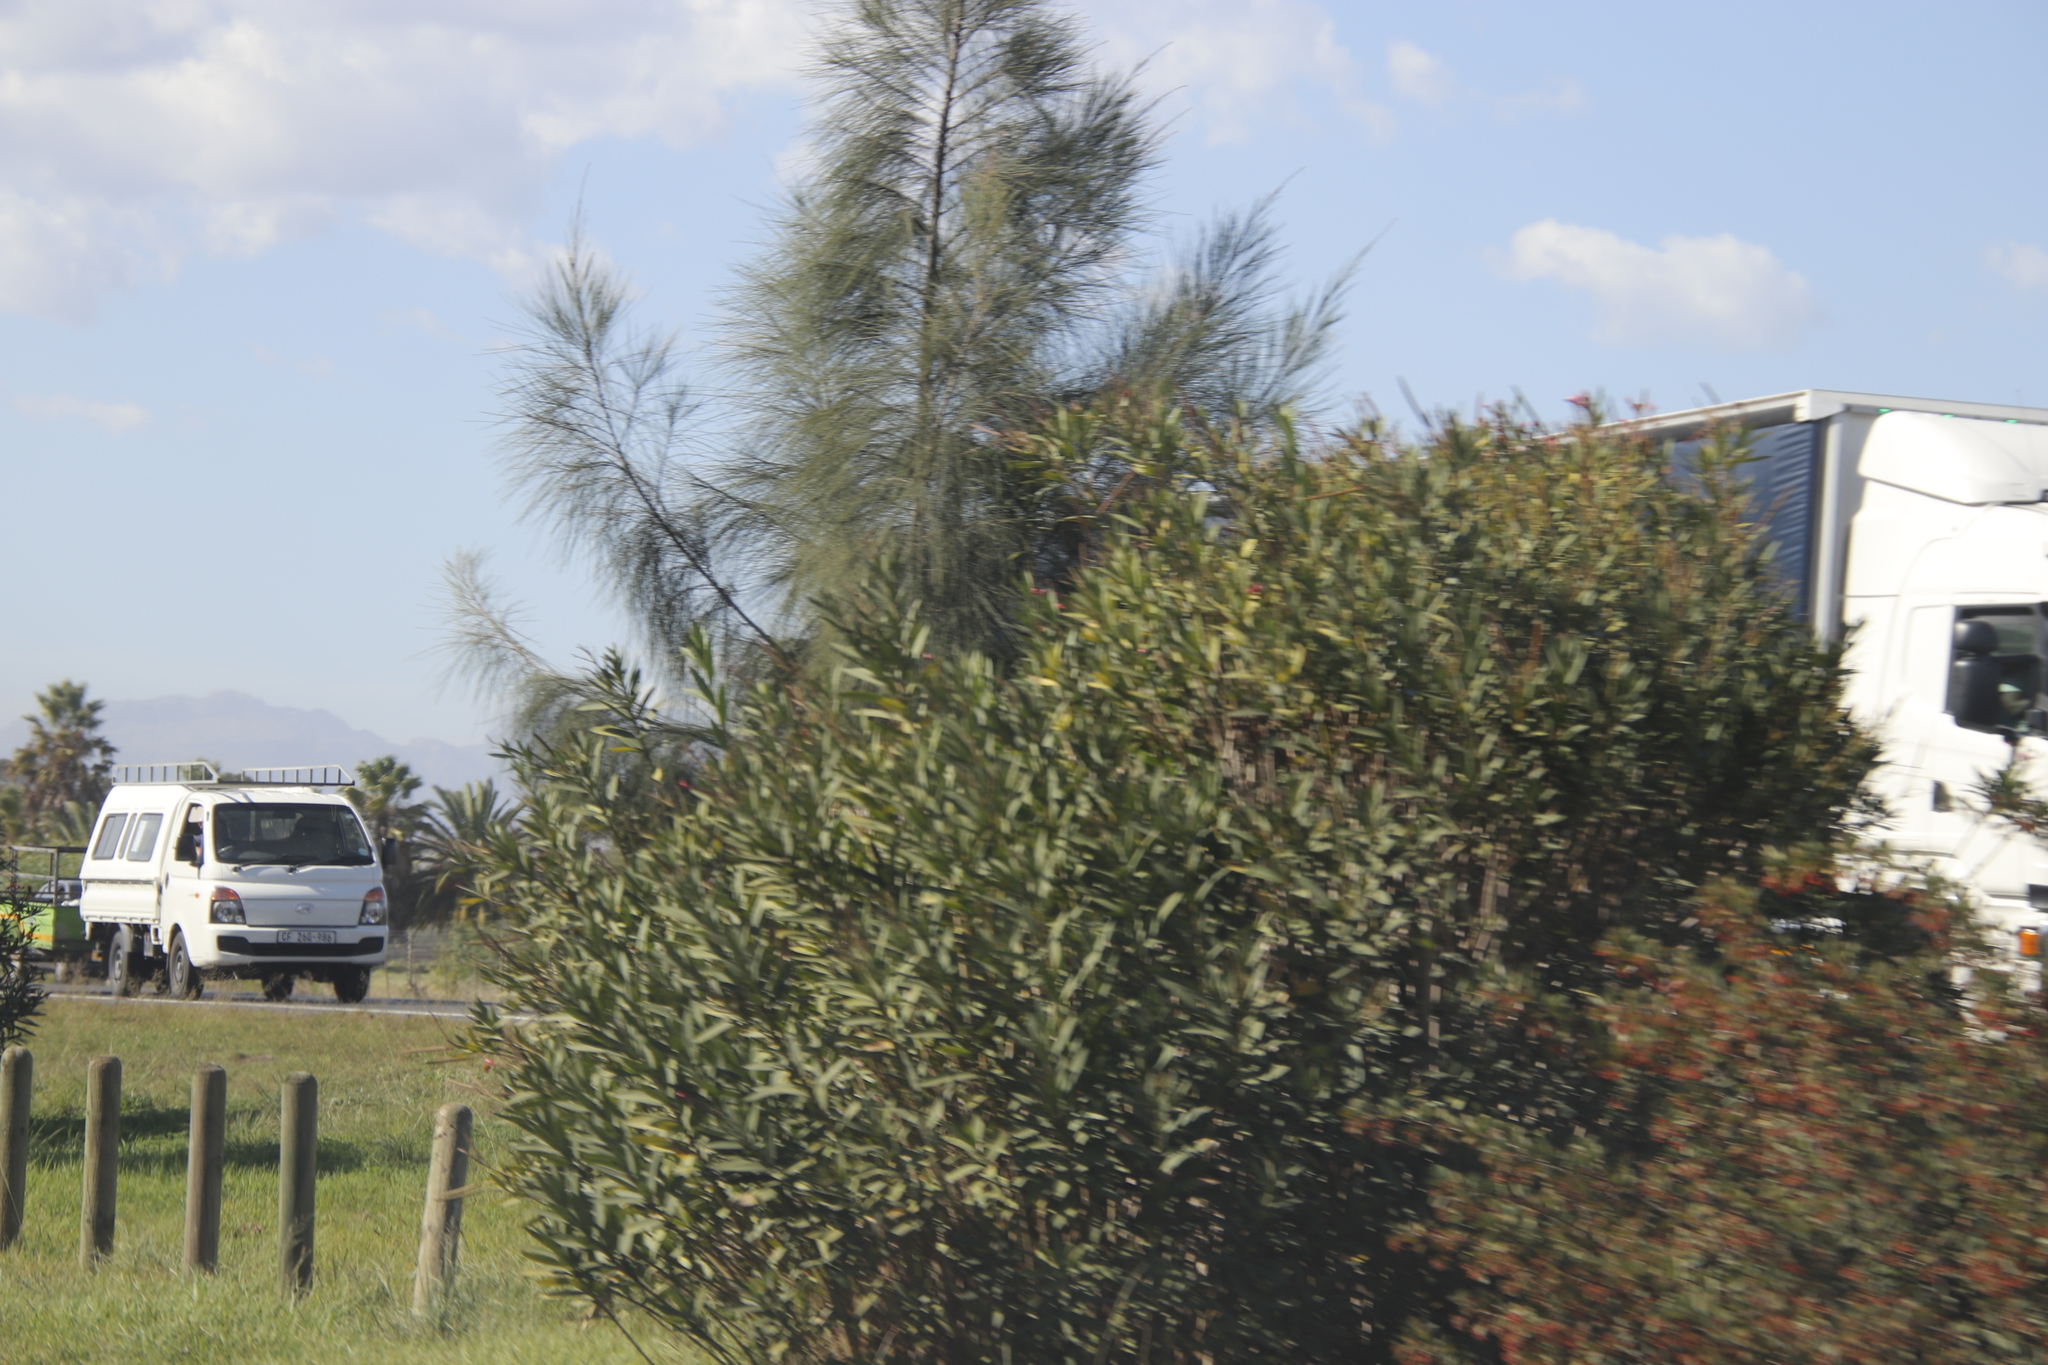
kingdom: Plantae
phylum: Tracheophyta
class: Magnoliopsida
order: Fagales
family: Casuarinaceae
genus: Casuarina
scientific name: Casuarina cunninghamiana
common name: River sheoak
